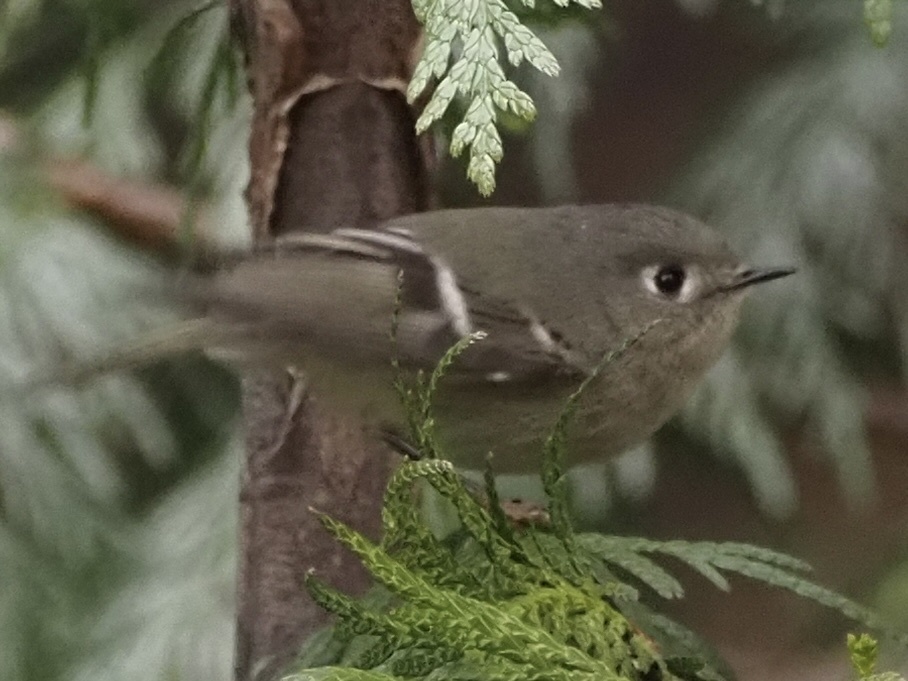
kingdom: Animalia
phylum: Chordata
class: Aves
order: Passeriformes
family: Regulidae
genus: Regulus
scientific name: Regulus calendula
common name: Ruby-crowned kinglet
